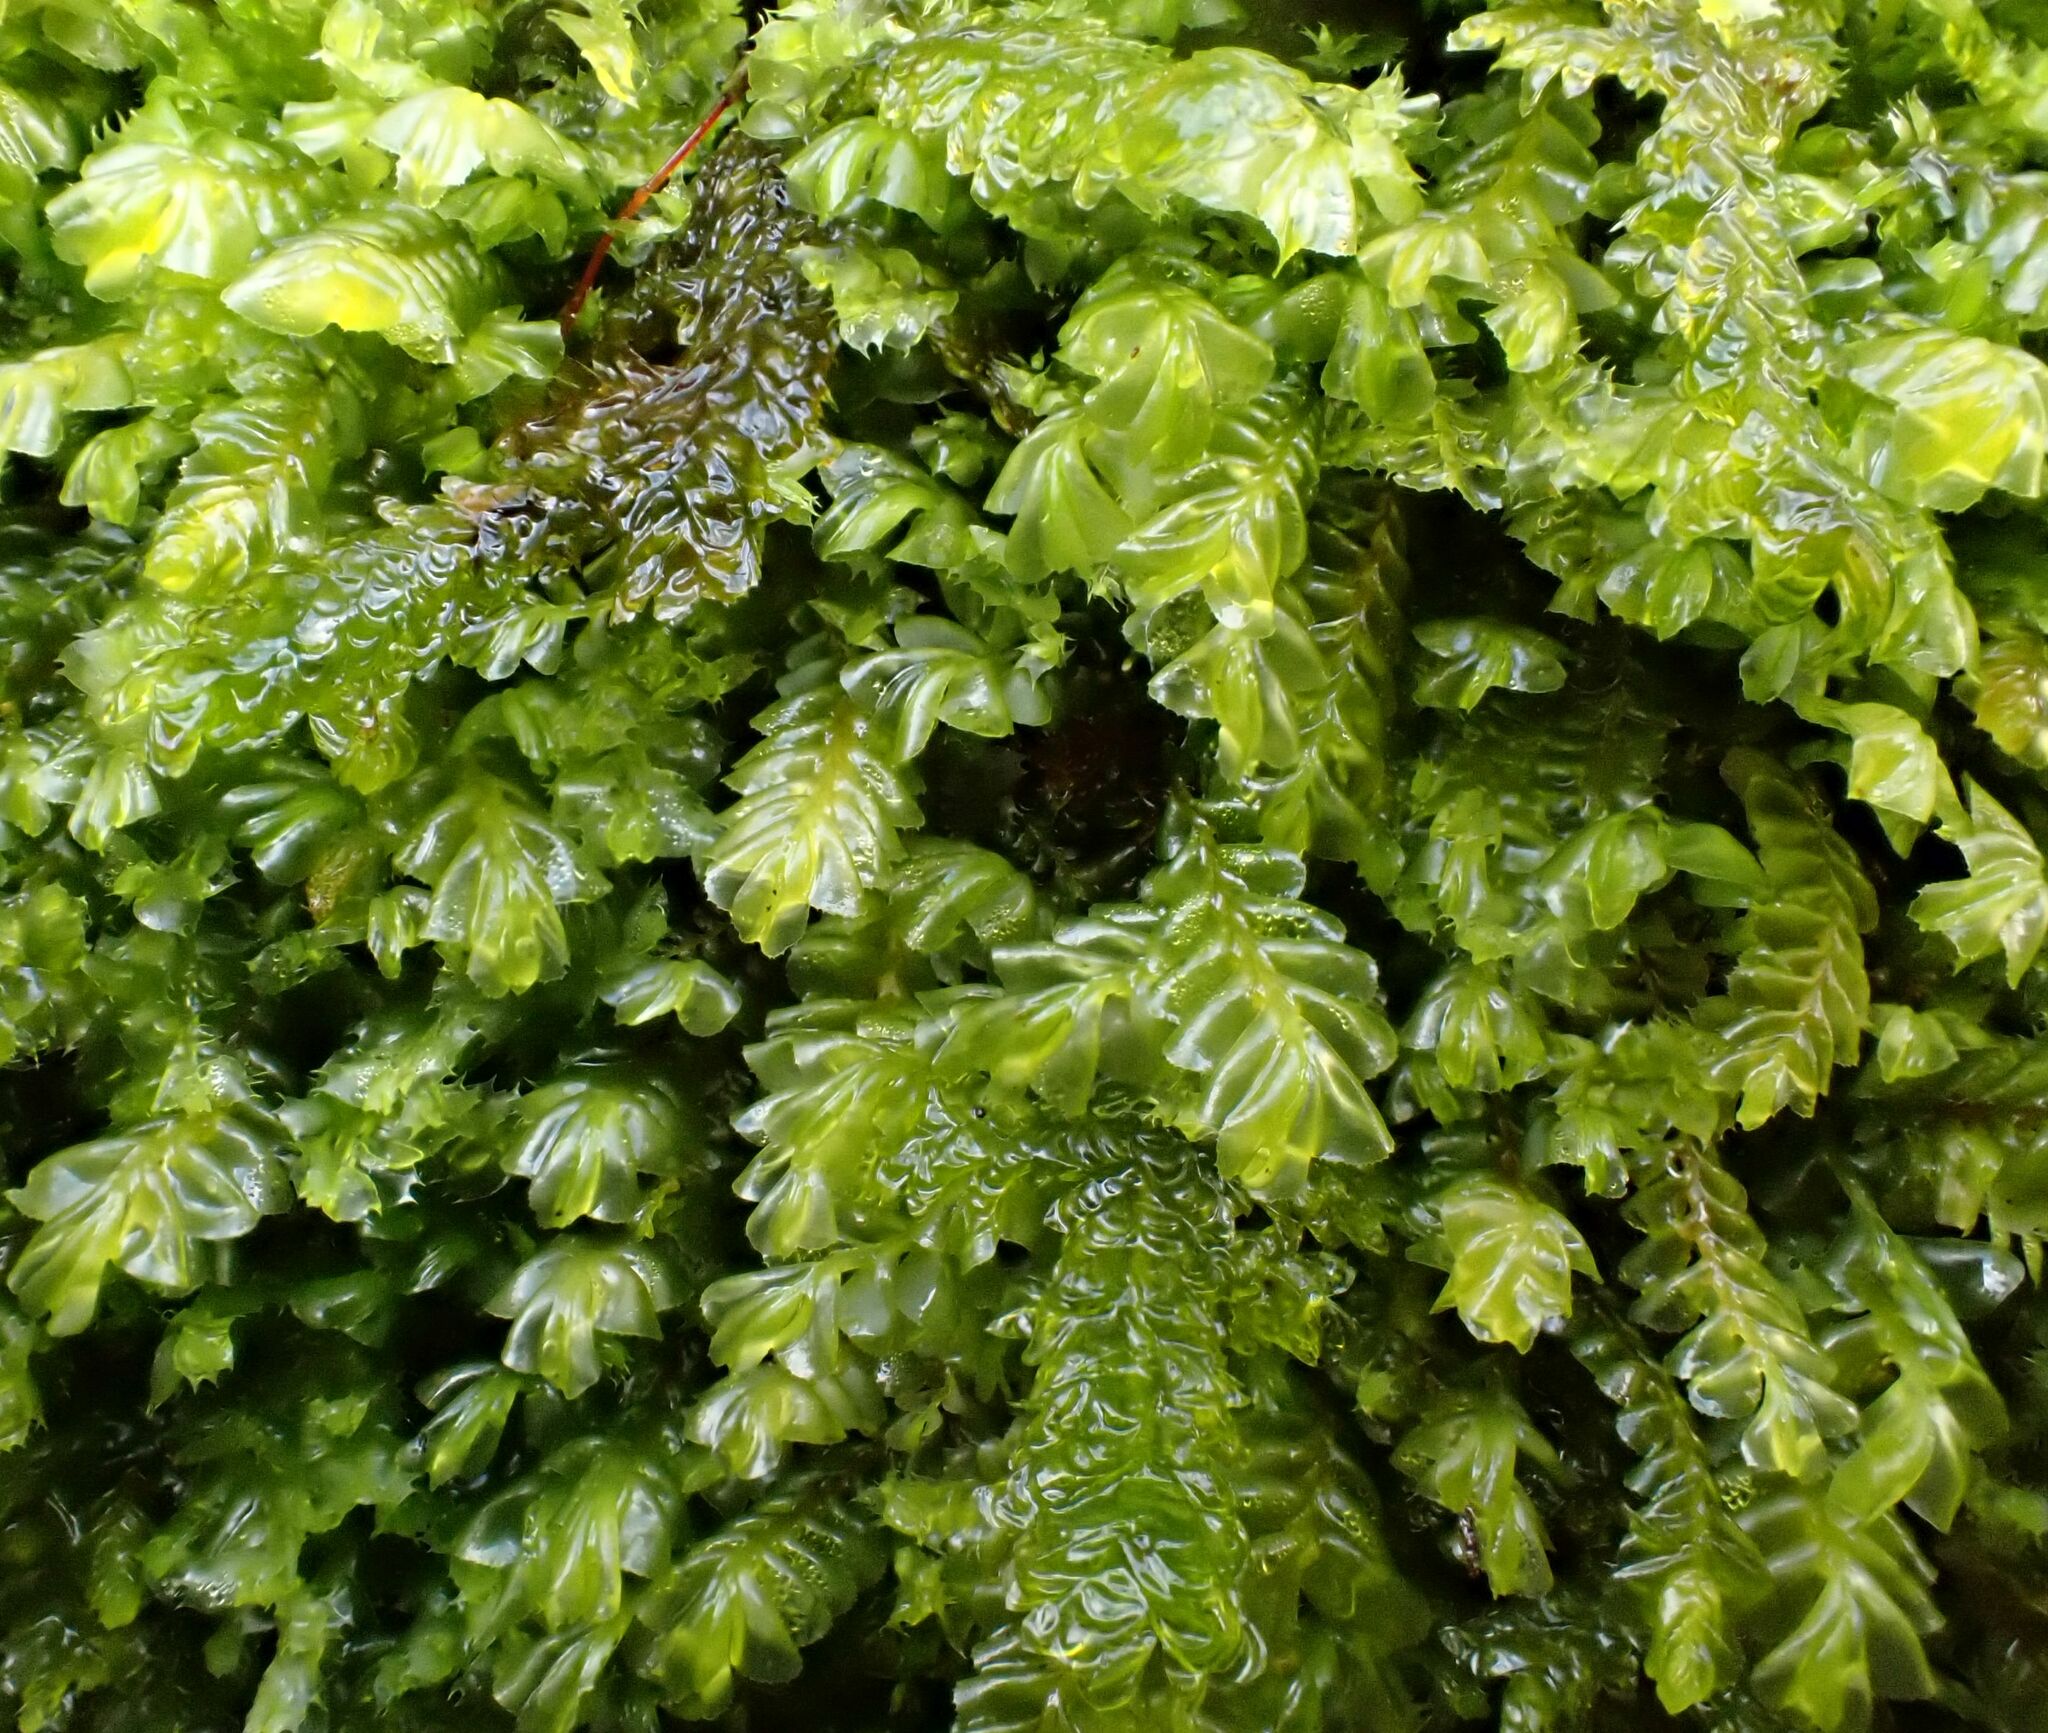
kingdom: Plantae
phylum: Marchantiophyta
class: Jungermanniopsida
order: Jungermanniales
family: Plagiochilaceae
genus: Plagiochila
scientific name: Plagiochila porelloides
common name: Lesser featherwort
